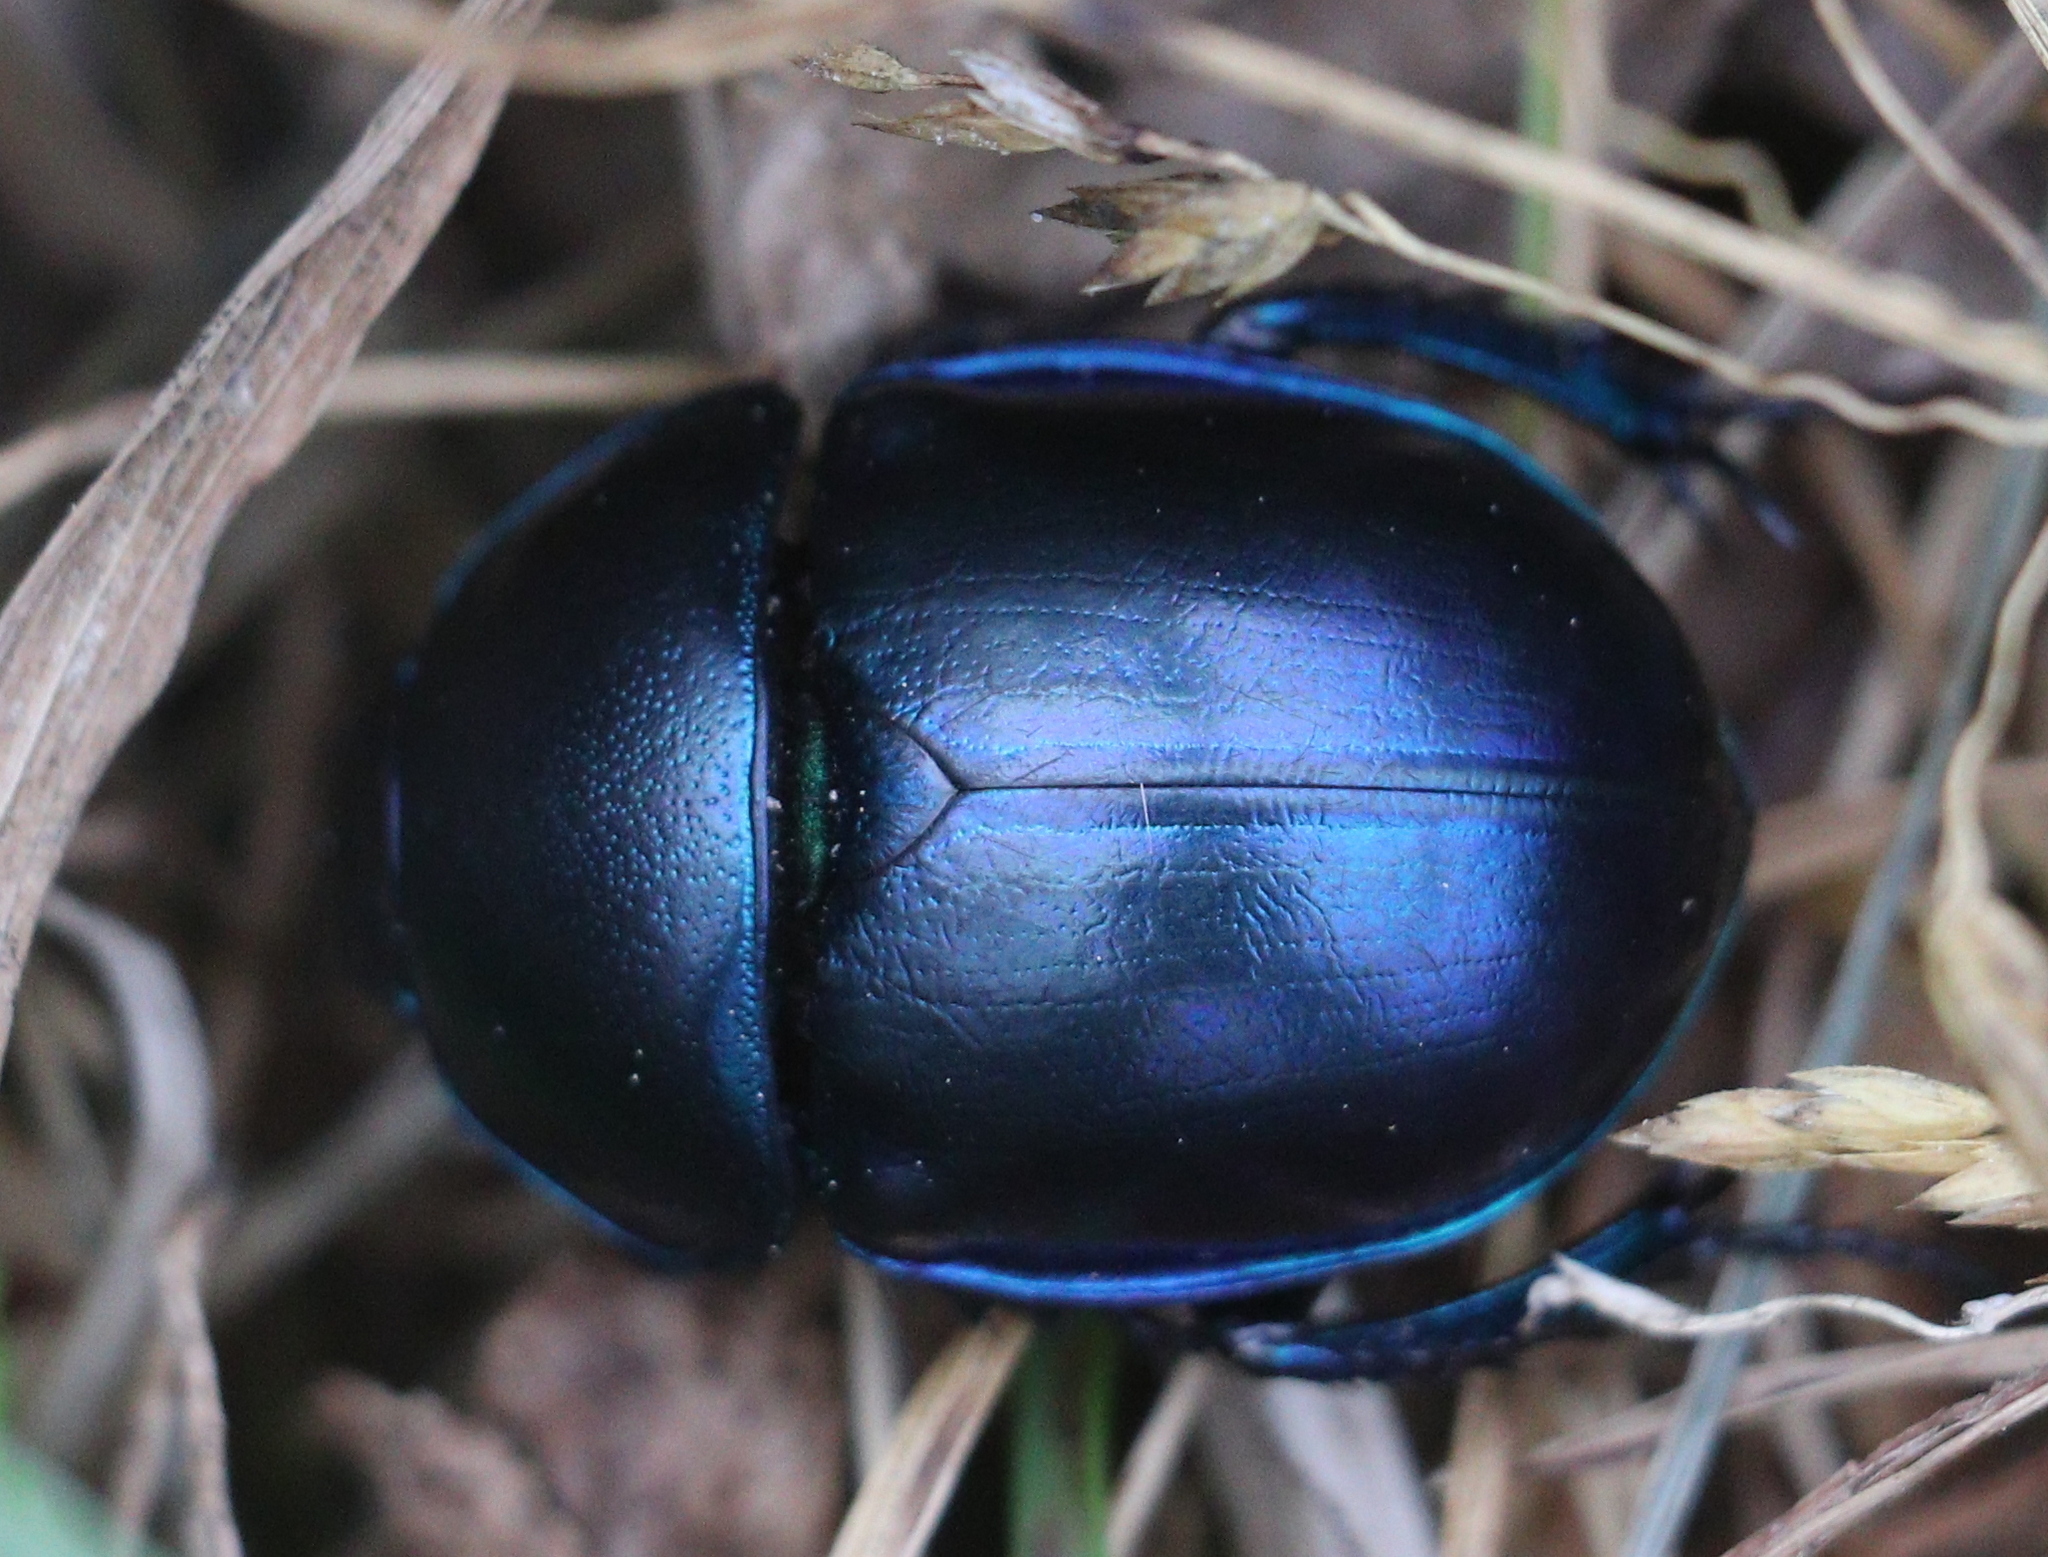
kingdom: Animalia
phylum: Arthropoda
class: Insecta
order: Coleoptera
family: Geotrupidae
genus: Trypocopris
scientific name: Trypocopris vernalis
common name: Spring dumbledor
